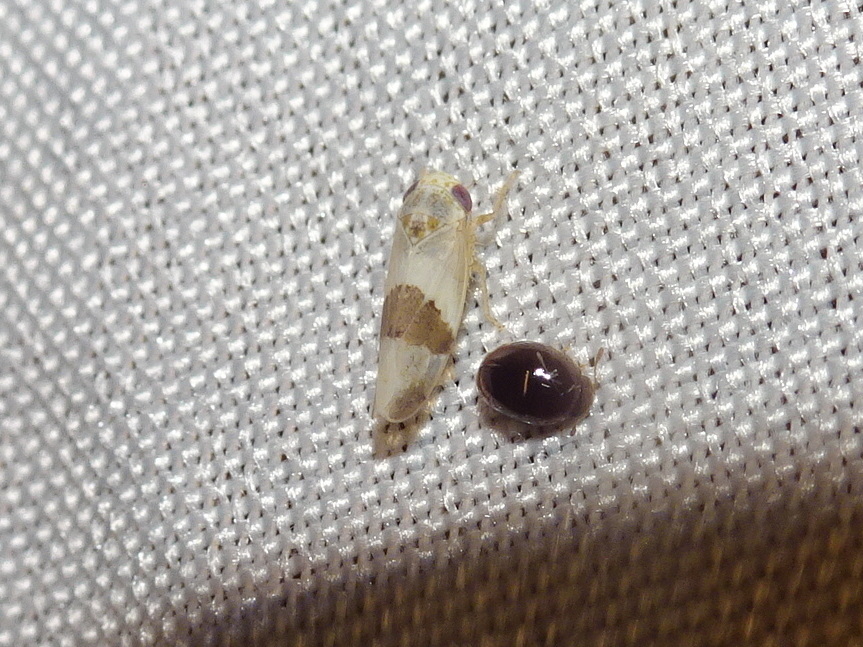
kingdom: Animalia
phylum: Arthropoda
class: Insecta
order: Hemiptera
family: Cicadellidae
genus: Norvellina
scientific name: Norvellina seminuda
